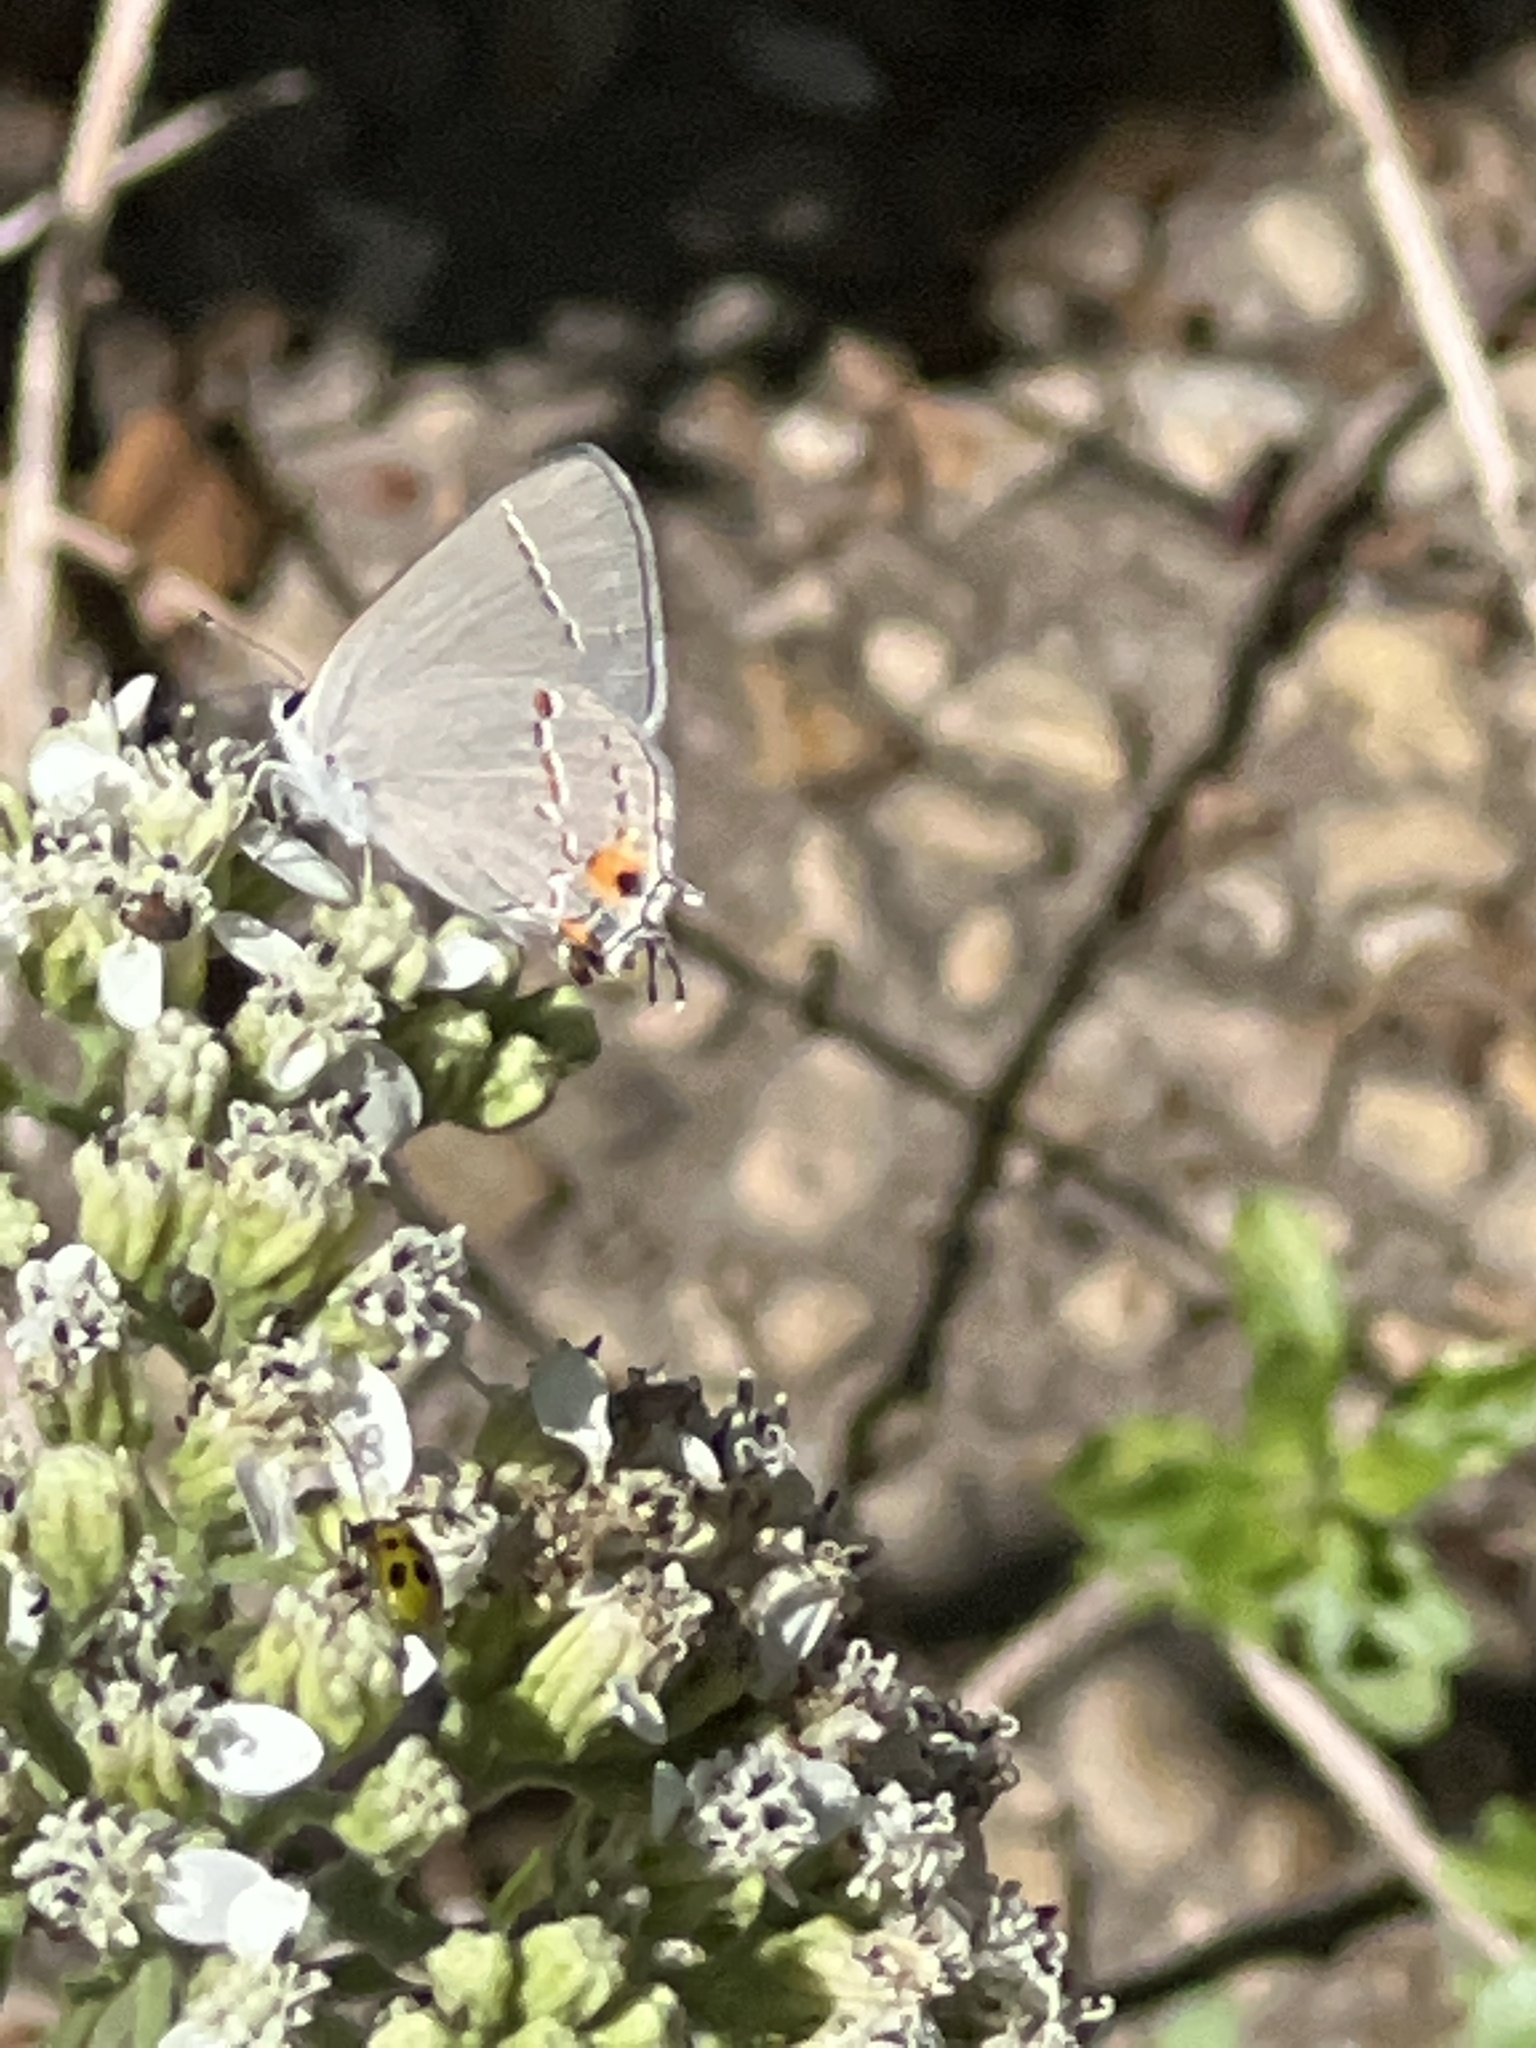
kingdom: Animalia
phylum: Arthropoda
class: Insecta
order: Lepidoptera
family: Lycaenidae
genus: Strymon
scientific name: Strymon melinus
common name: Gray hairstreak
